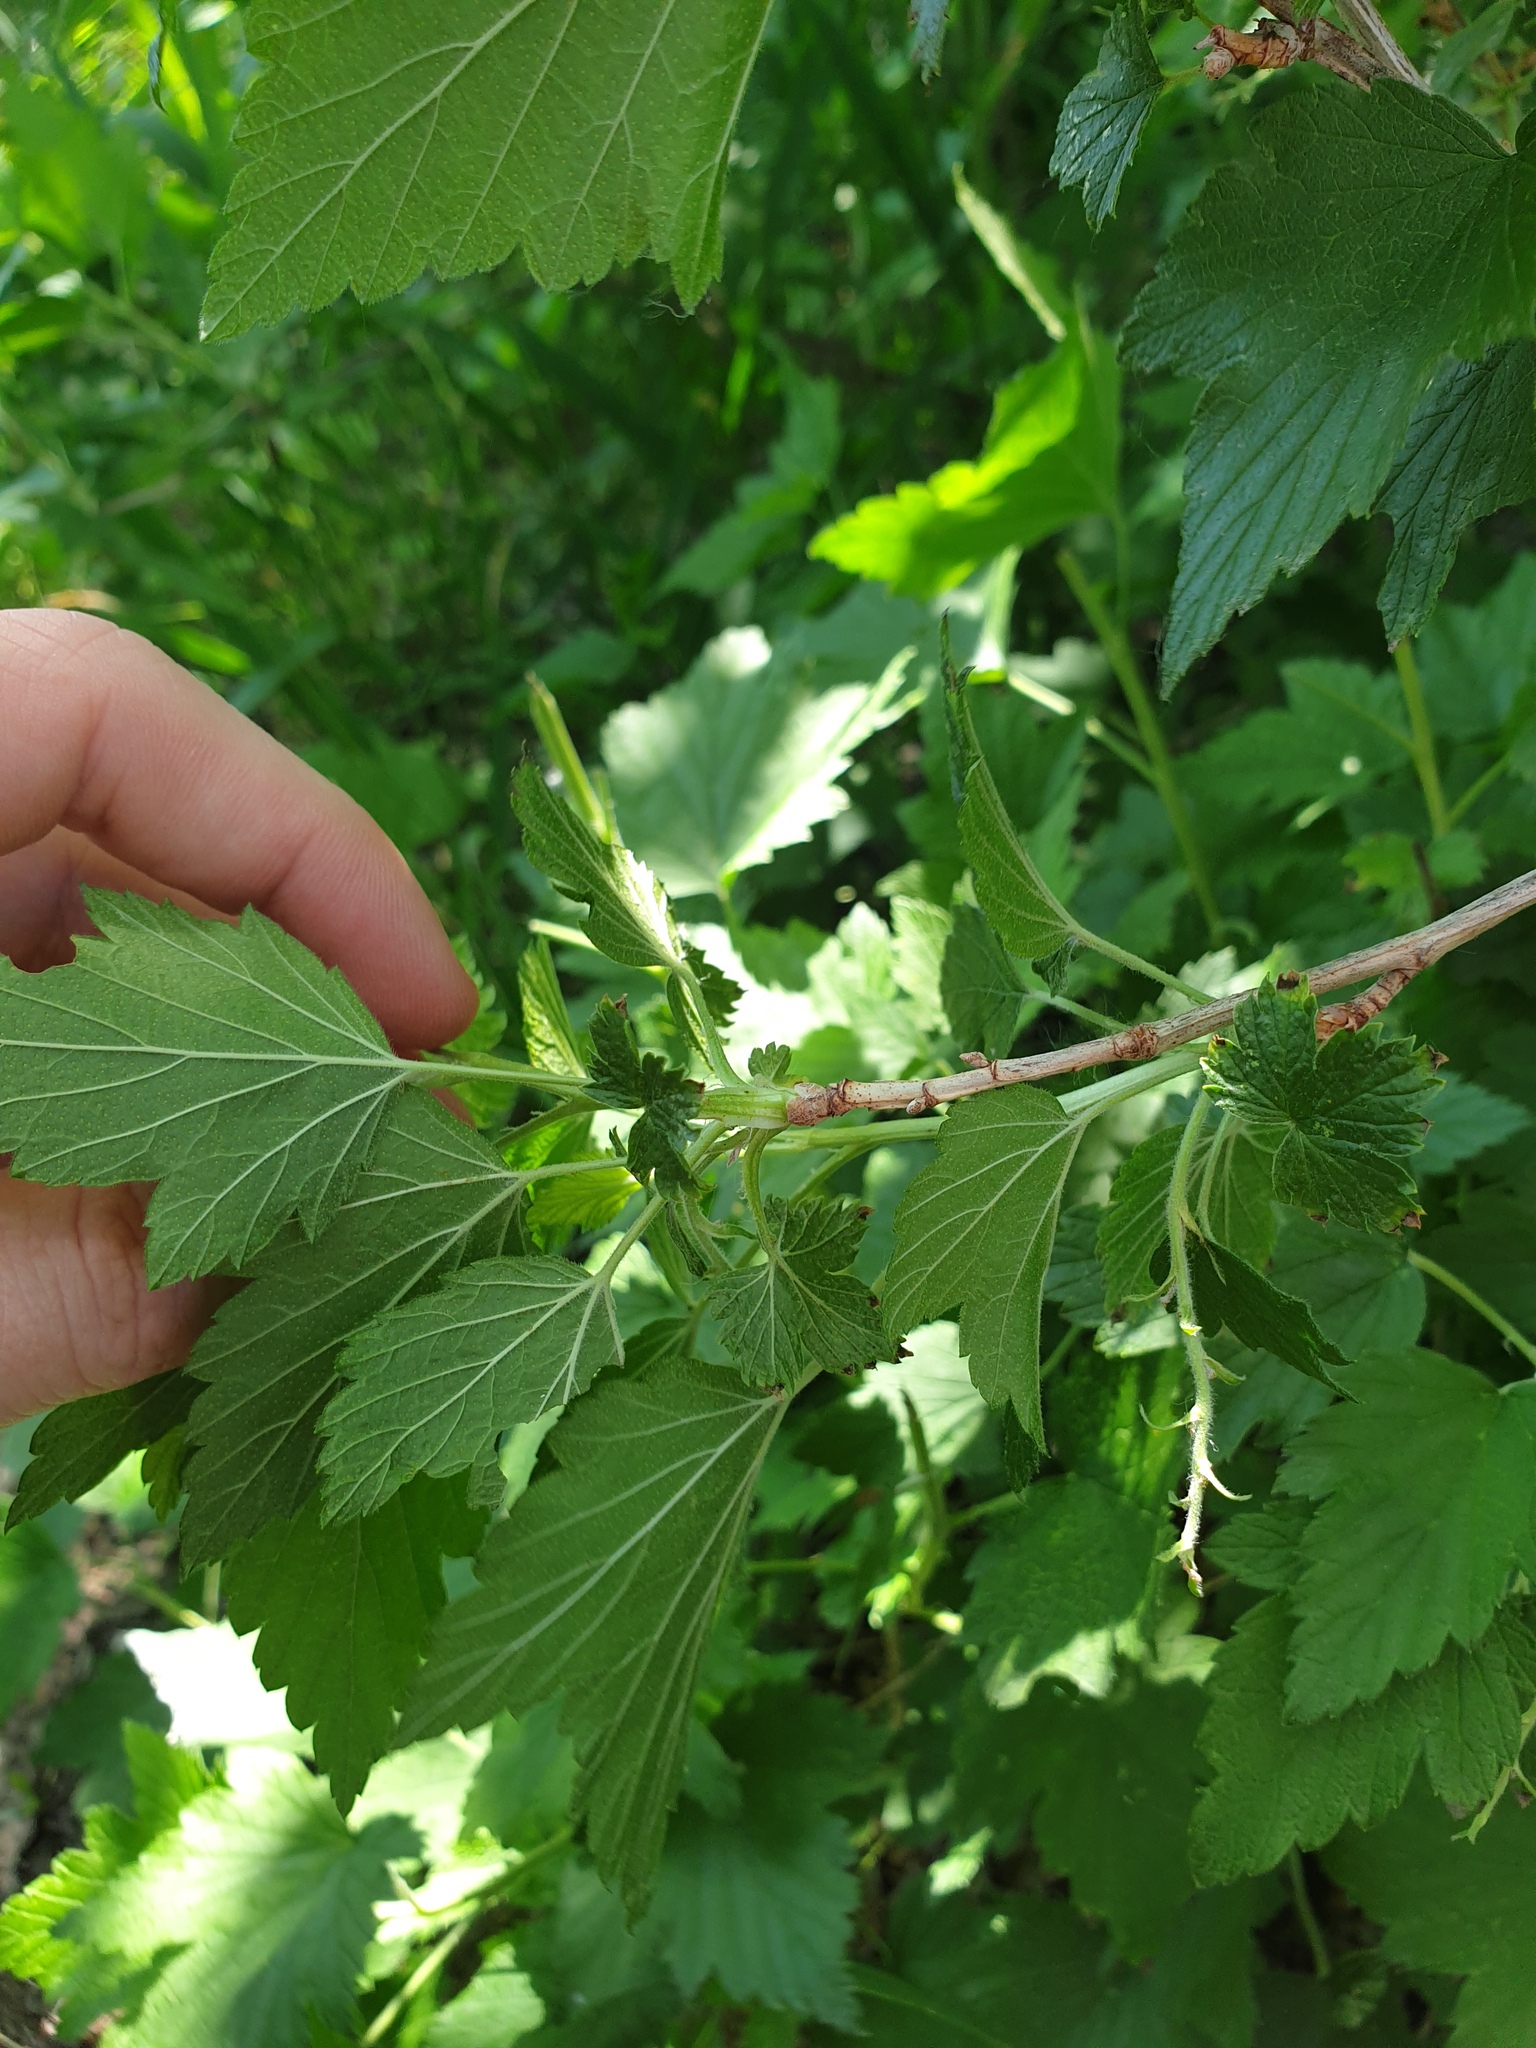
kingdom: Plantae
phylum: Tracheophyta
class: Magnoliopsida
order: Saxifragales
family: Grossulariaceae
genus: Ribes
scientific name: Ribes americanum
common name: American black currant
